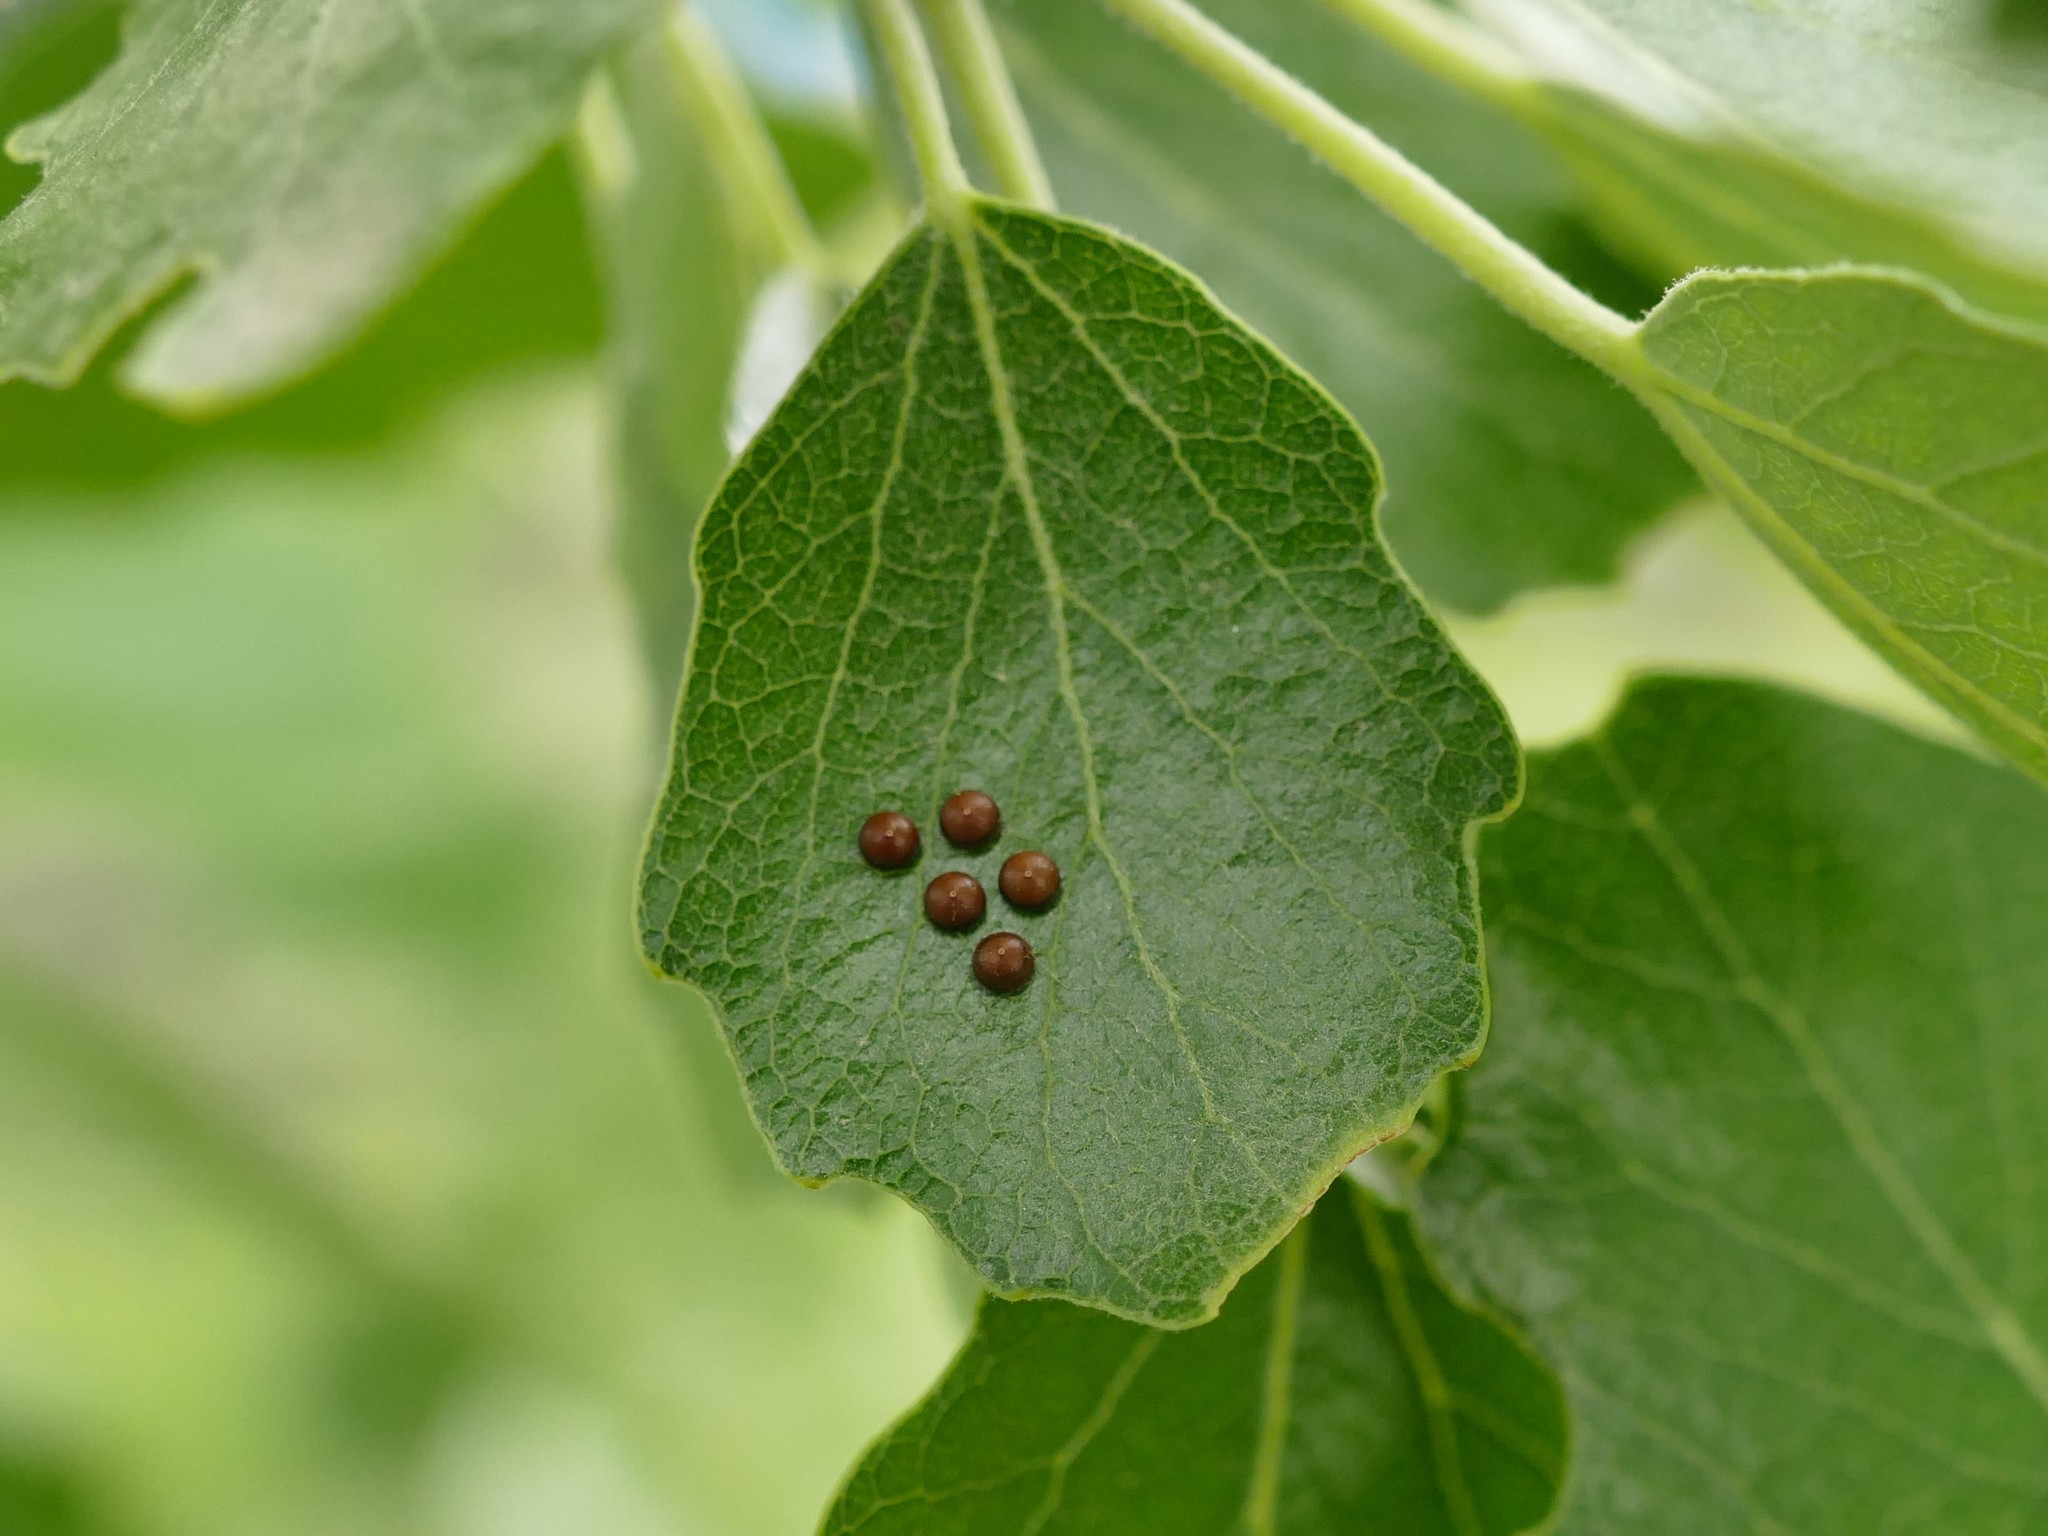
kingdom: Animalia
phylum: Arthropoda
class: Insecta
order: Lepidoptera
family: Notodontidae
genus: Cerura
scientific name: Cerura iberica
